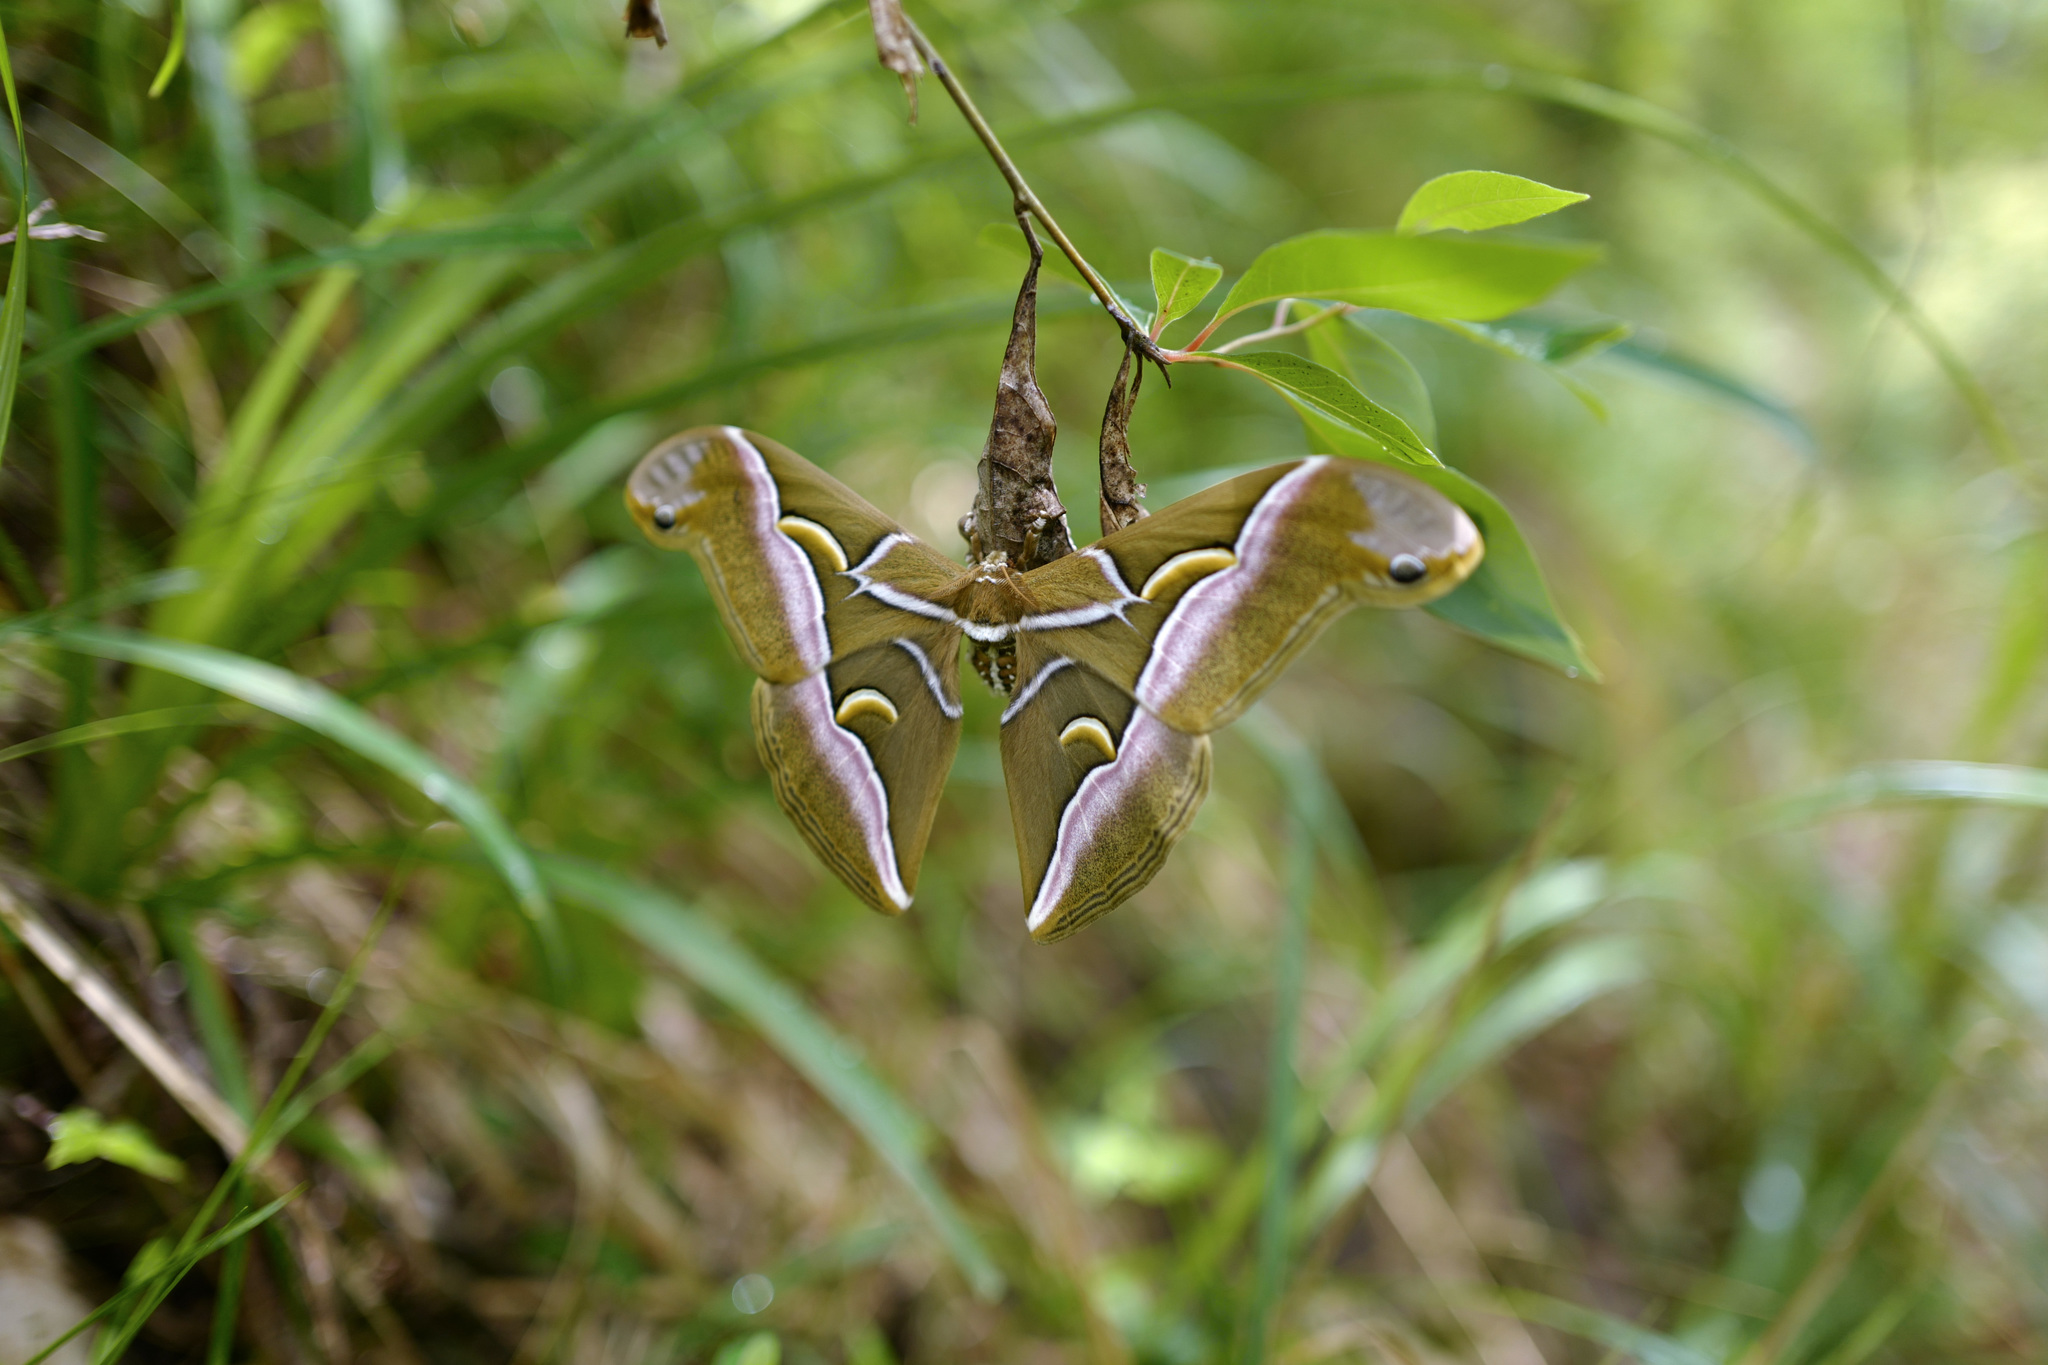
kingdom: Animalia
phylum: Arthropoda
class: Insecta
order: Lepidoptera
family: Saturniidae
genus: Samia
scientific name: Samia cynthia
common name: Ailanthus silkmoth
